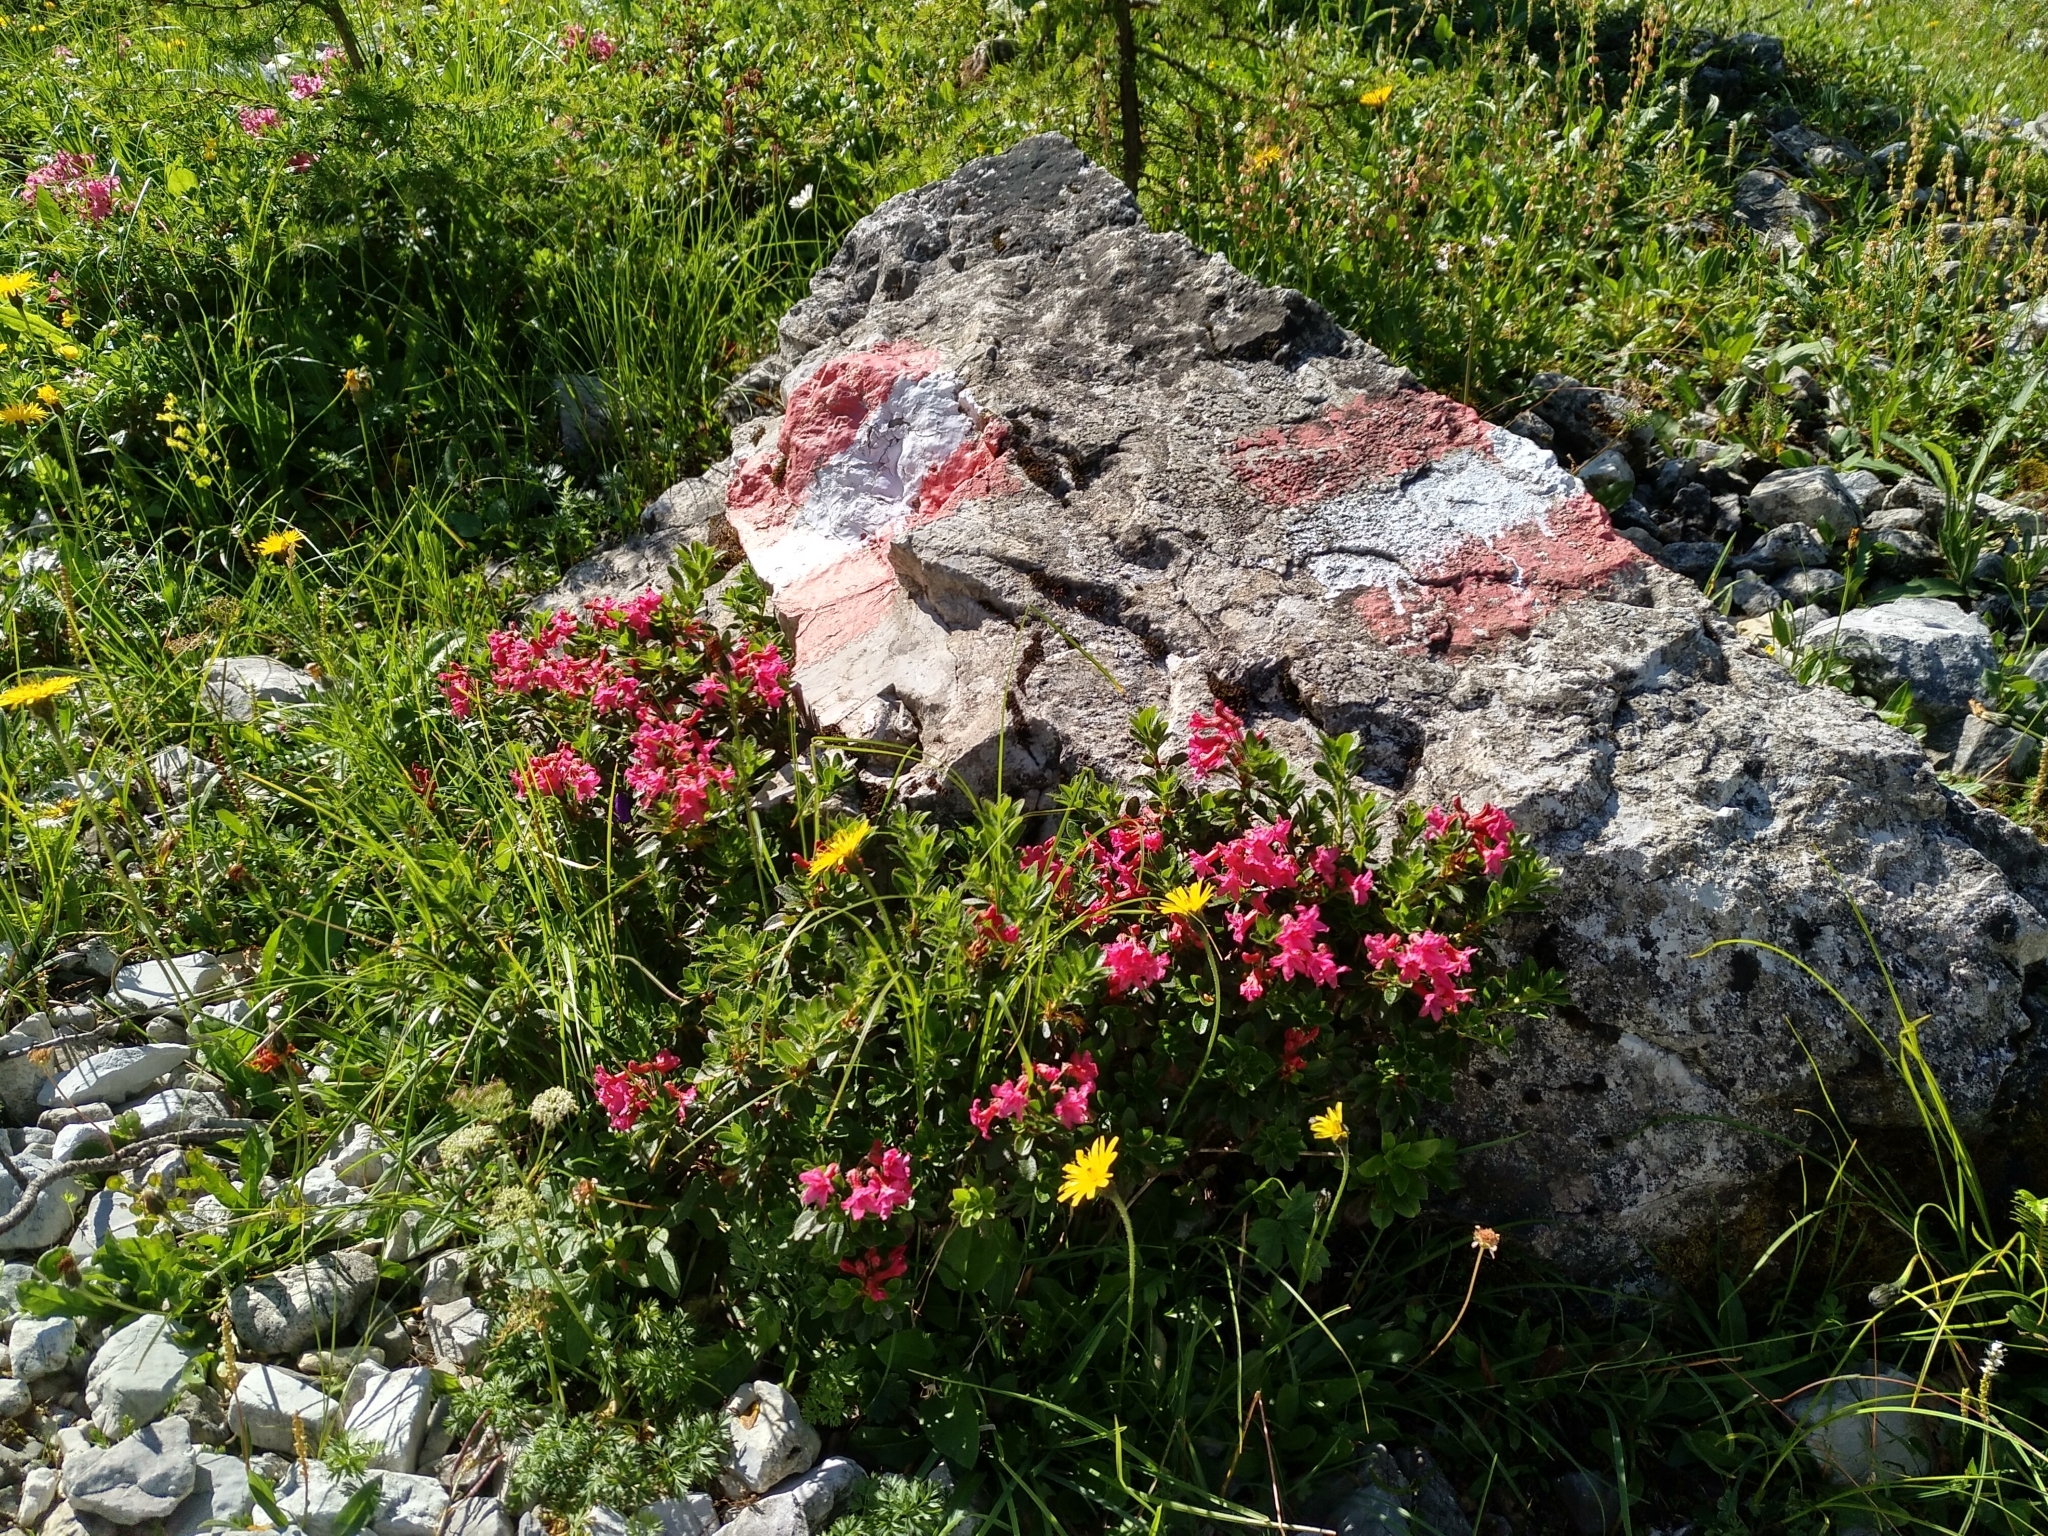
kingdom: Plantae
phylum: Tracheophyta
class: Magnoliopsida
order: Ericales
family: Ericaceae
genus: Rhododendron
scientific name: Rhododendron hirsutum
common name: Hairy alpenrose
